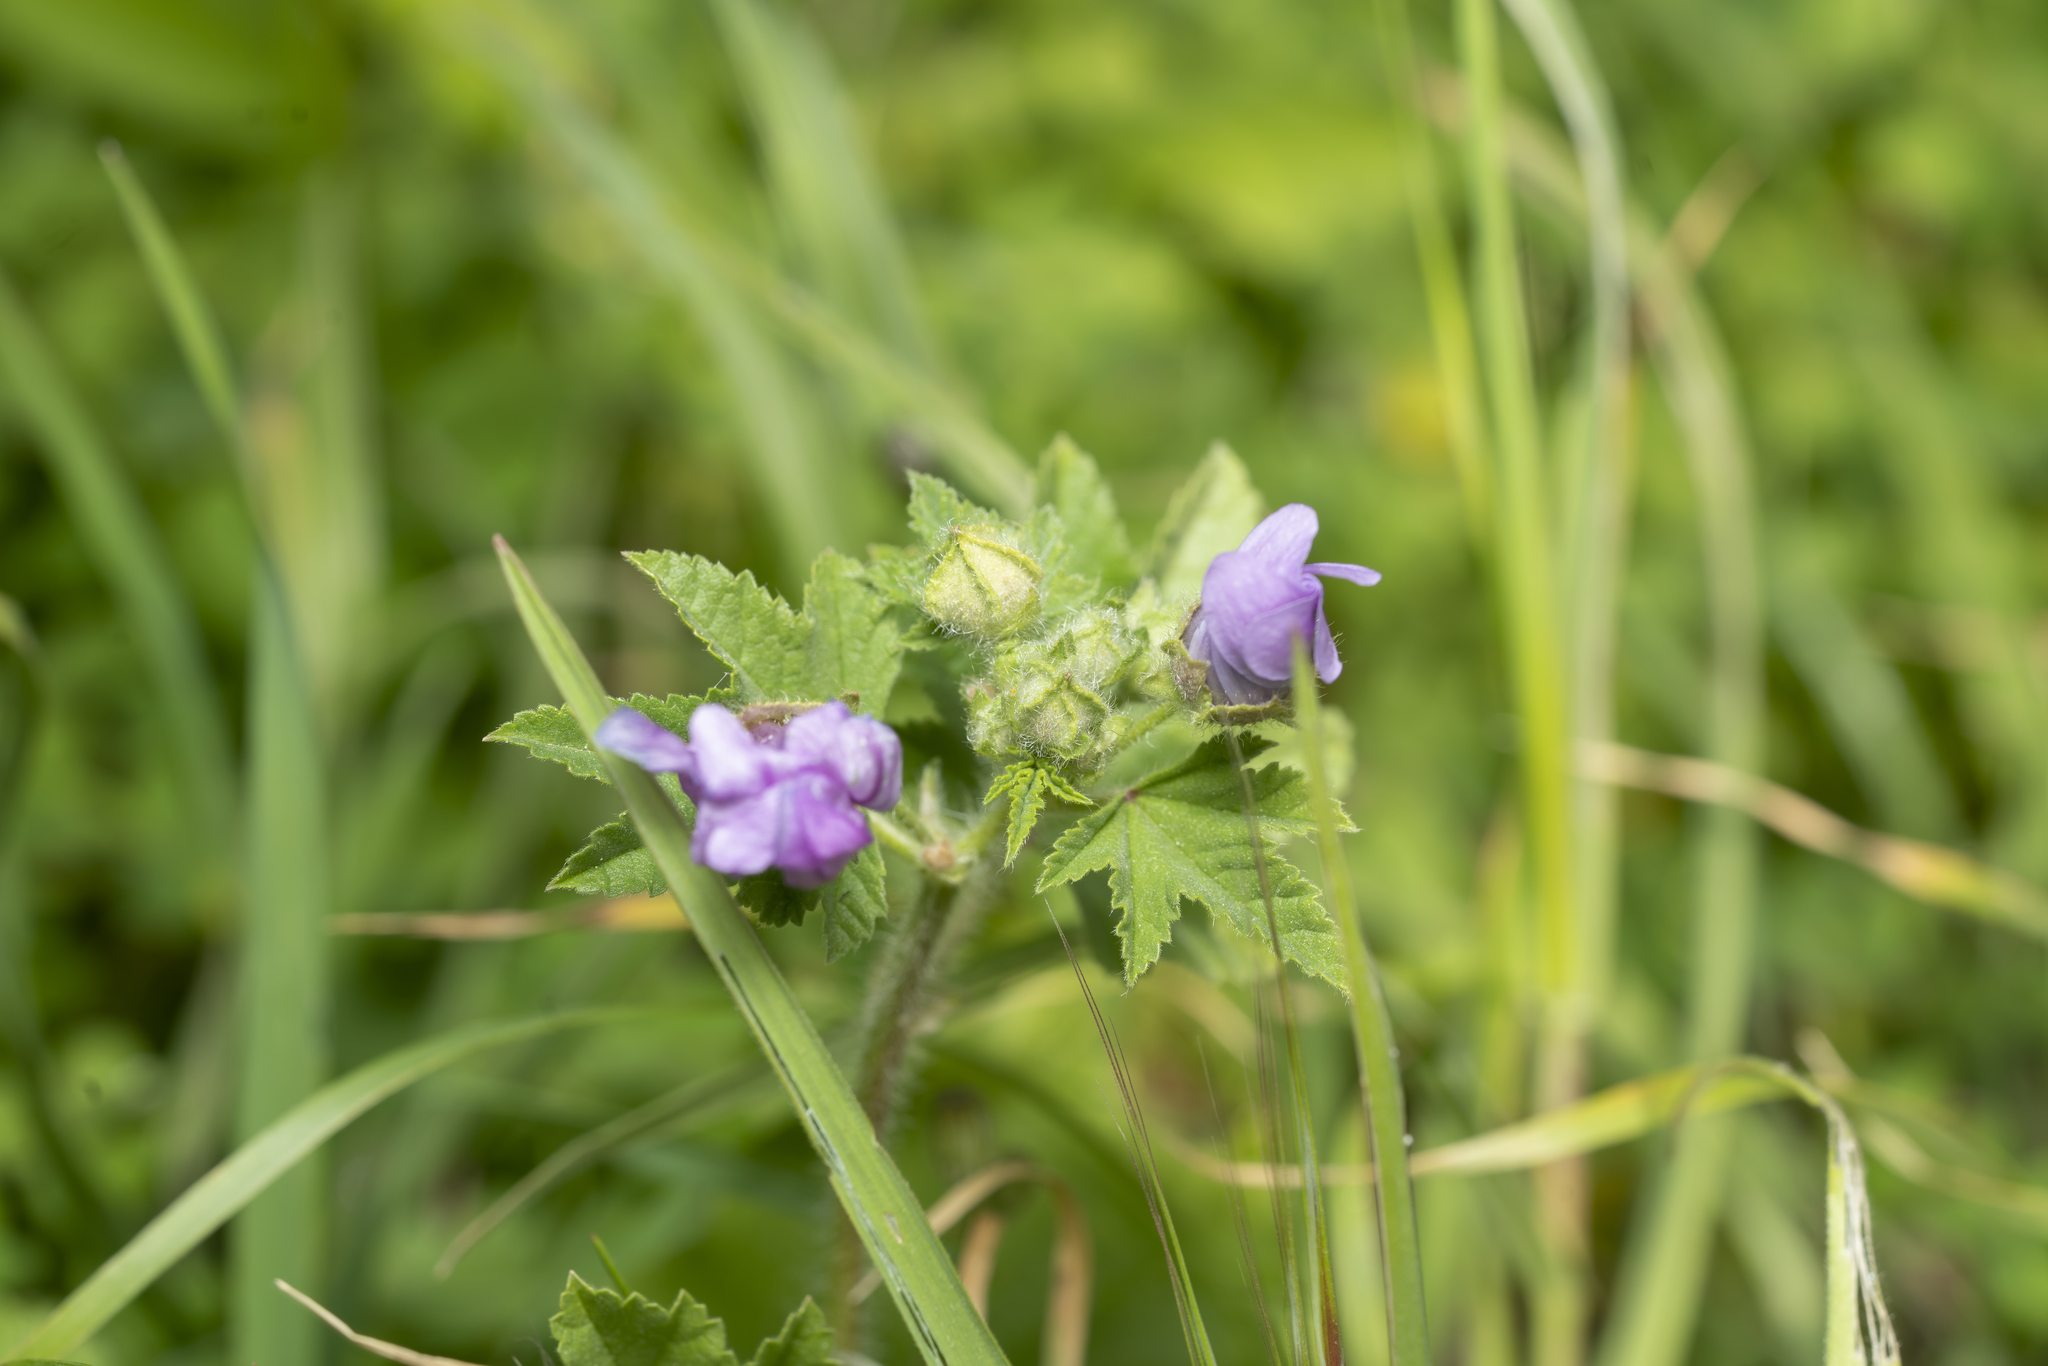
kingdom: Plantae
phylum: Tracheophyta
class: Magnoliopsida
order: Malvales
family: Malvaceae
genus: Malva
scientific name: Malva sylvestris
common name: Common mallow
